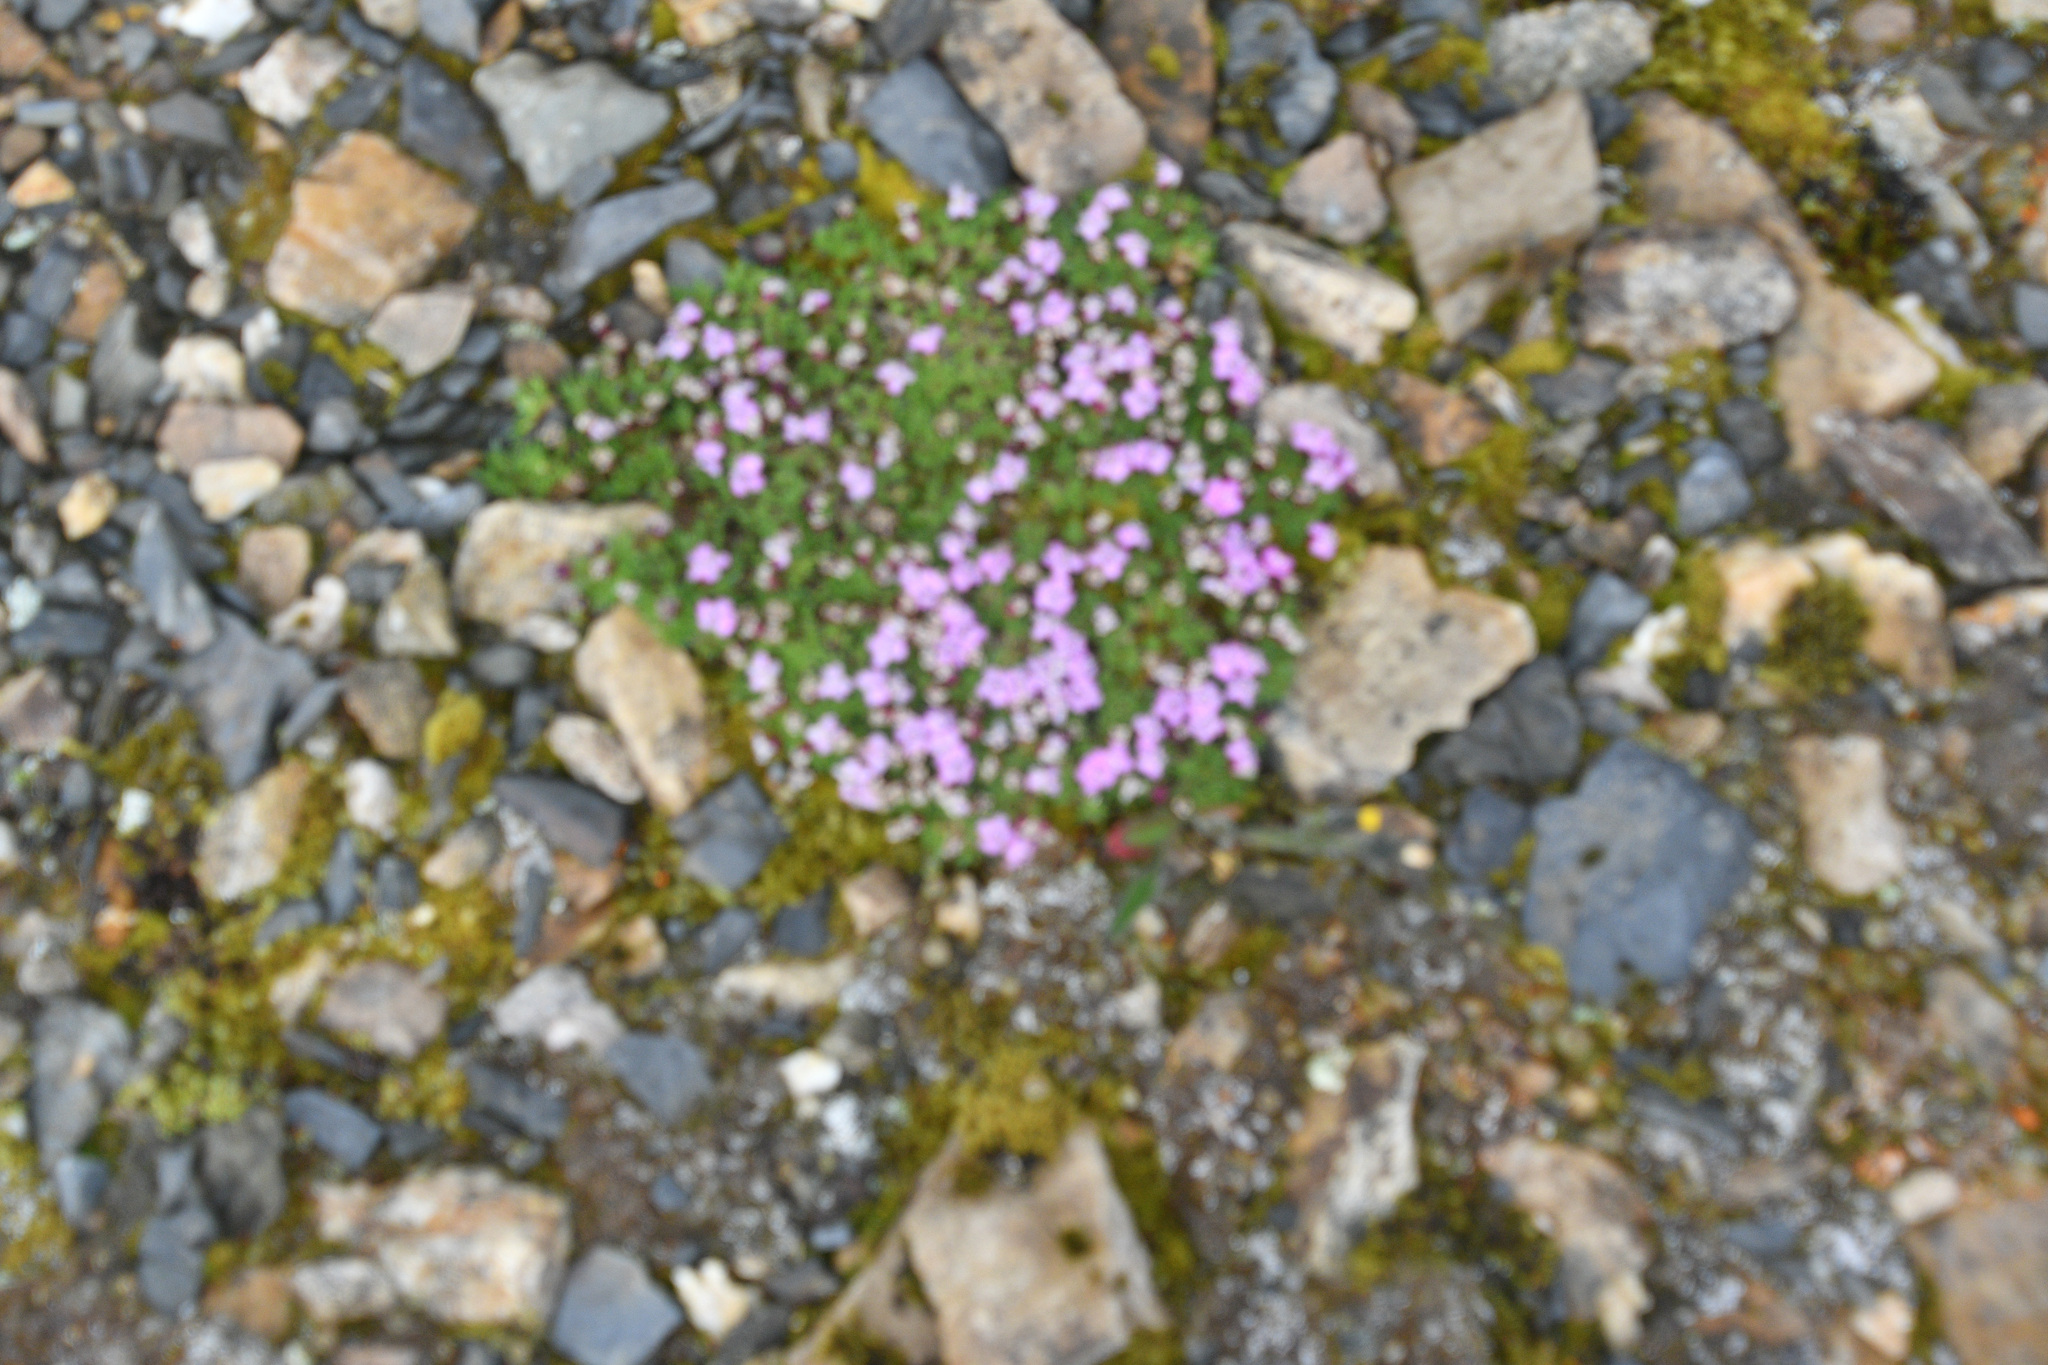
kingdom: Plantae
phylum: Tracheophyta
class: Magnoliopsida
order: Caryophyllales
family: Caryophyllaceae
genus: Silene
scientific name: Silene acaulis
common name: Moss campion
